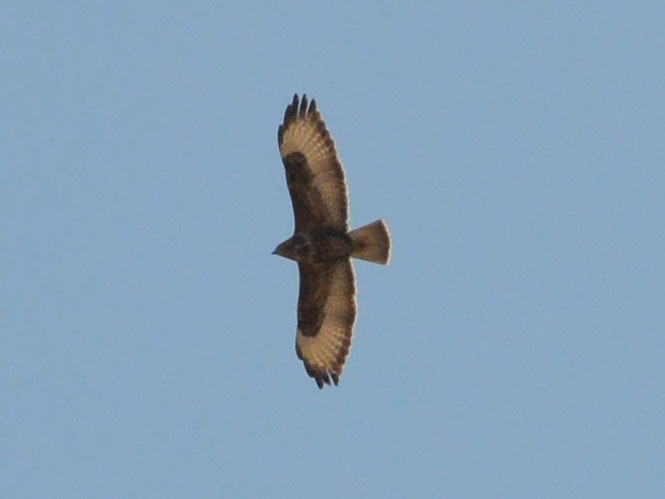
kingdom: Animalia
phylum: Chordata
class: Aves
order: Accipitriformes
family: Accipitridae
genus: Buteo
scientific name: Buteo buteo
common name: Common buzzard
